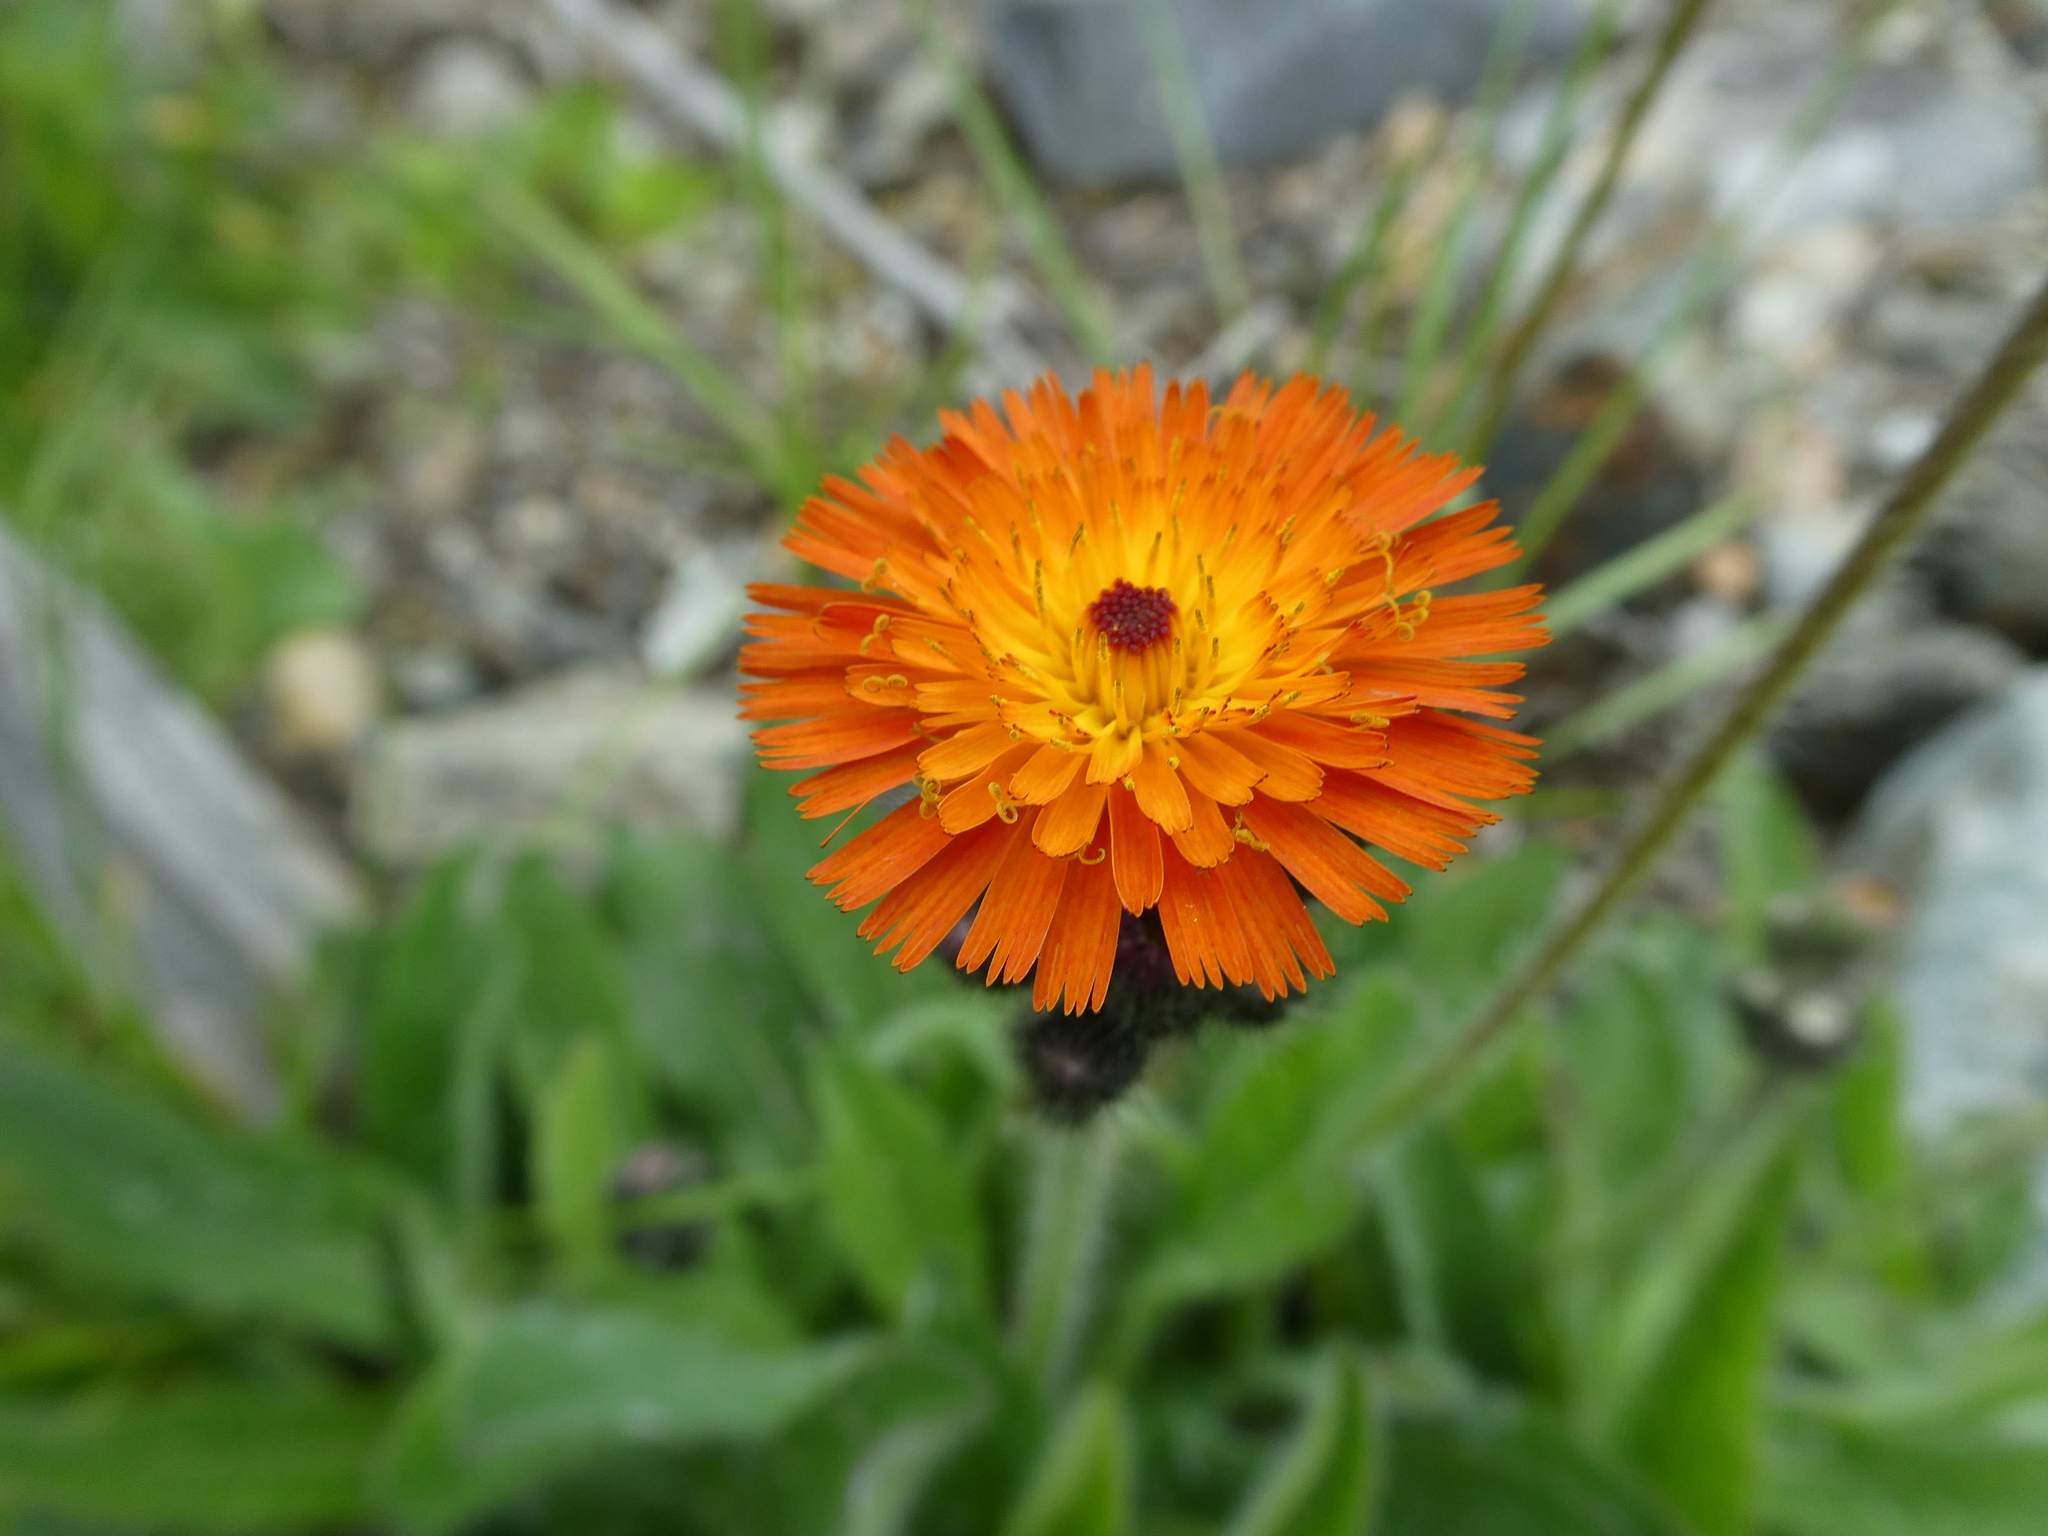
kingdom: Plantae
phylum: Tracheophyta
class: Magnoliopsida
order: Asterales
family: Asteraceae
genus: Pilosella
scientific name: Pilosella aurantiaca
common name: Fox-and-cubs
